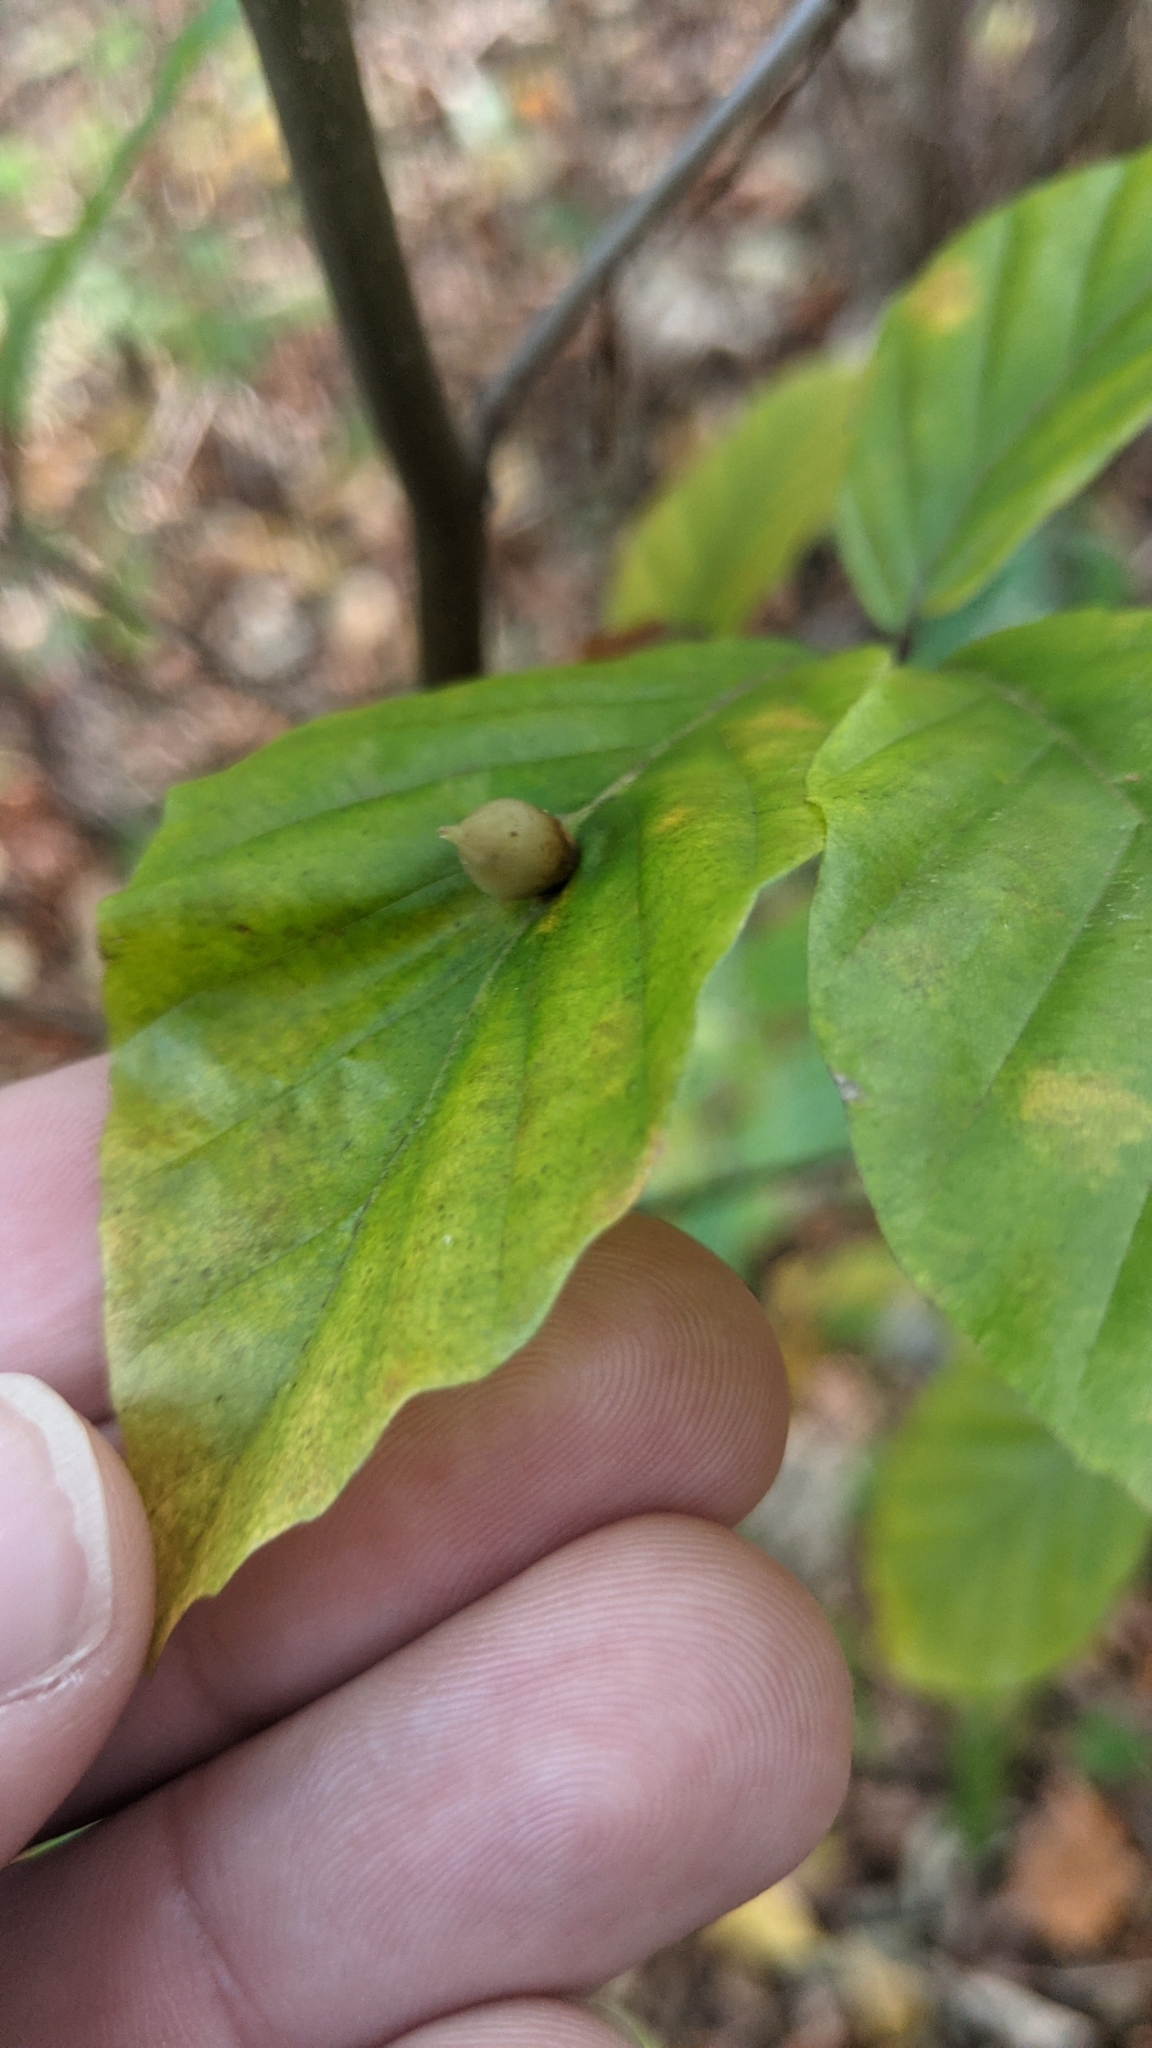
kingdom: Animalia
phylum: Arthropoda
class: Insecta
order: Diptera
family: Cecidomyiidae
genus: Mikiola
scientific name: Mikiola fagi
